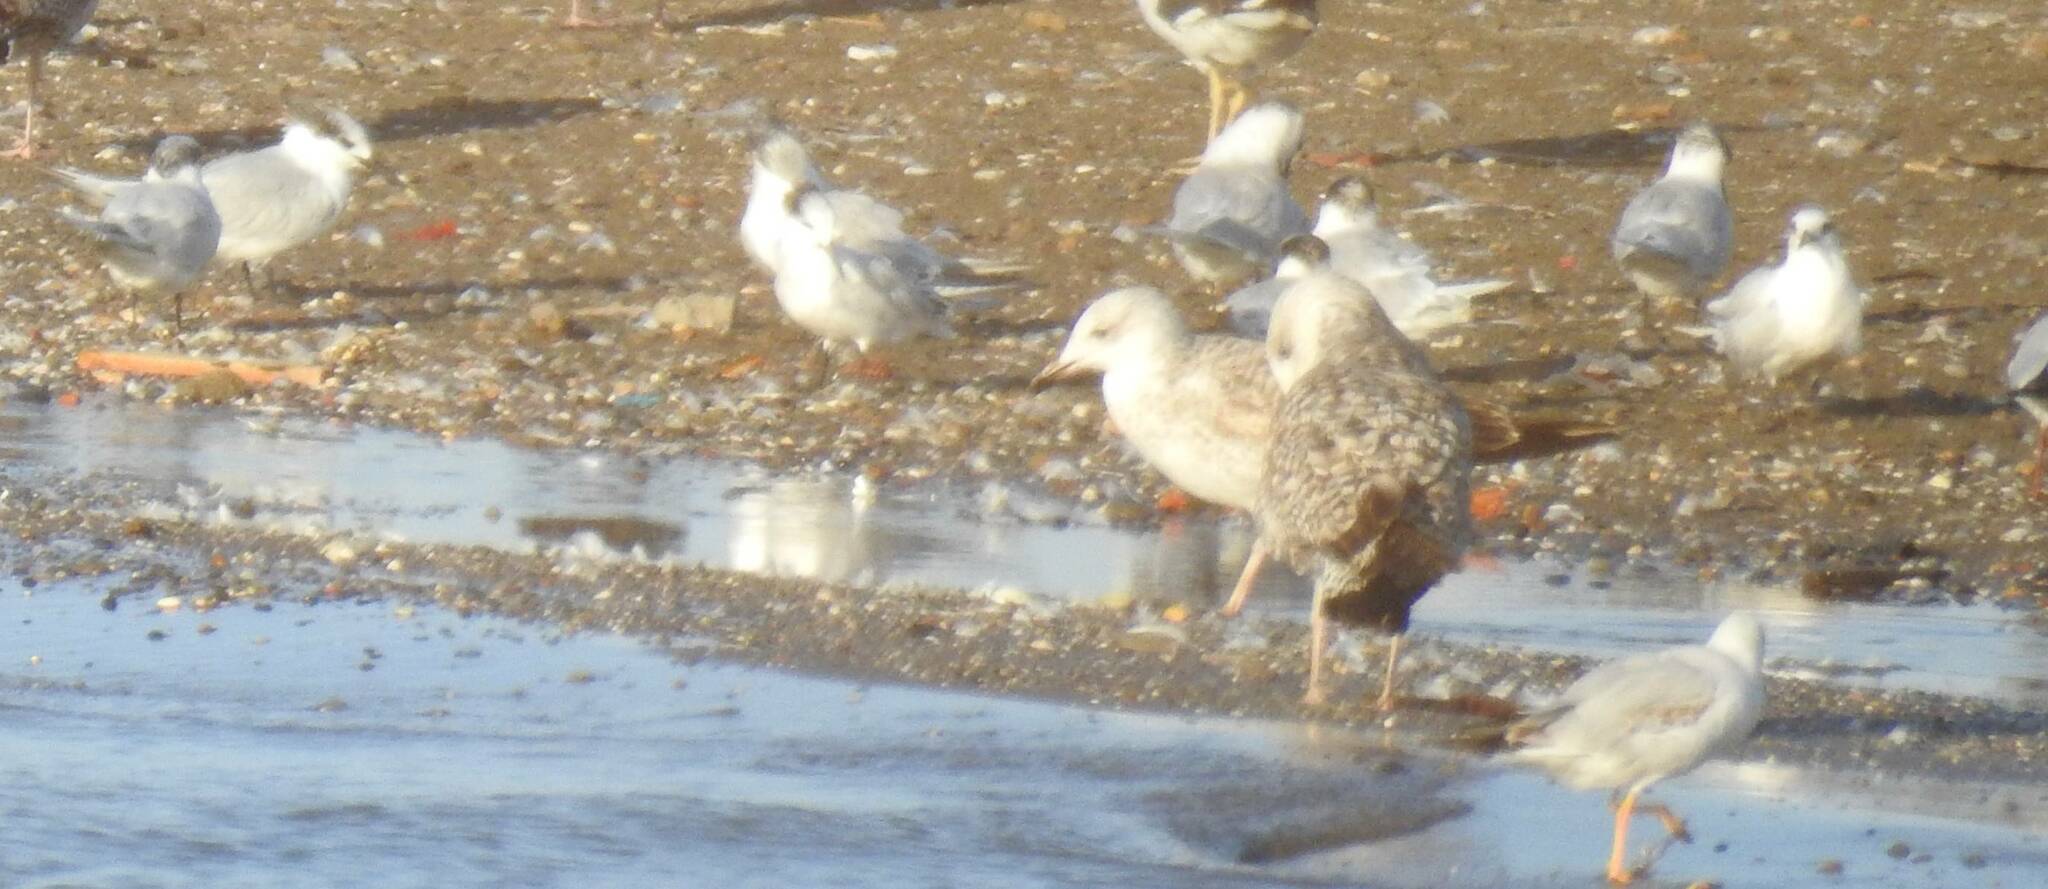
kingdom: Animalia
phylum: Chordata
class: Aves
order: Charadriiformes
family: Laridae
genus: Larus
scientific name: Larus michahellis
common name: Yellow-legged gull
